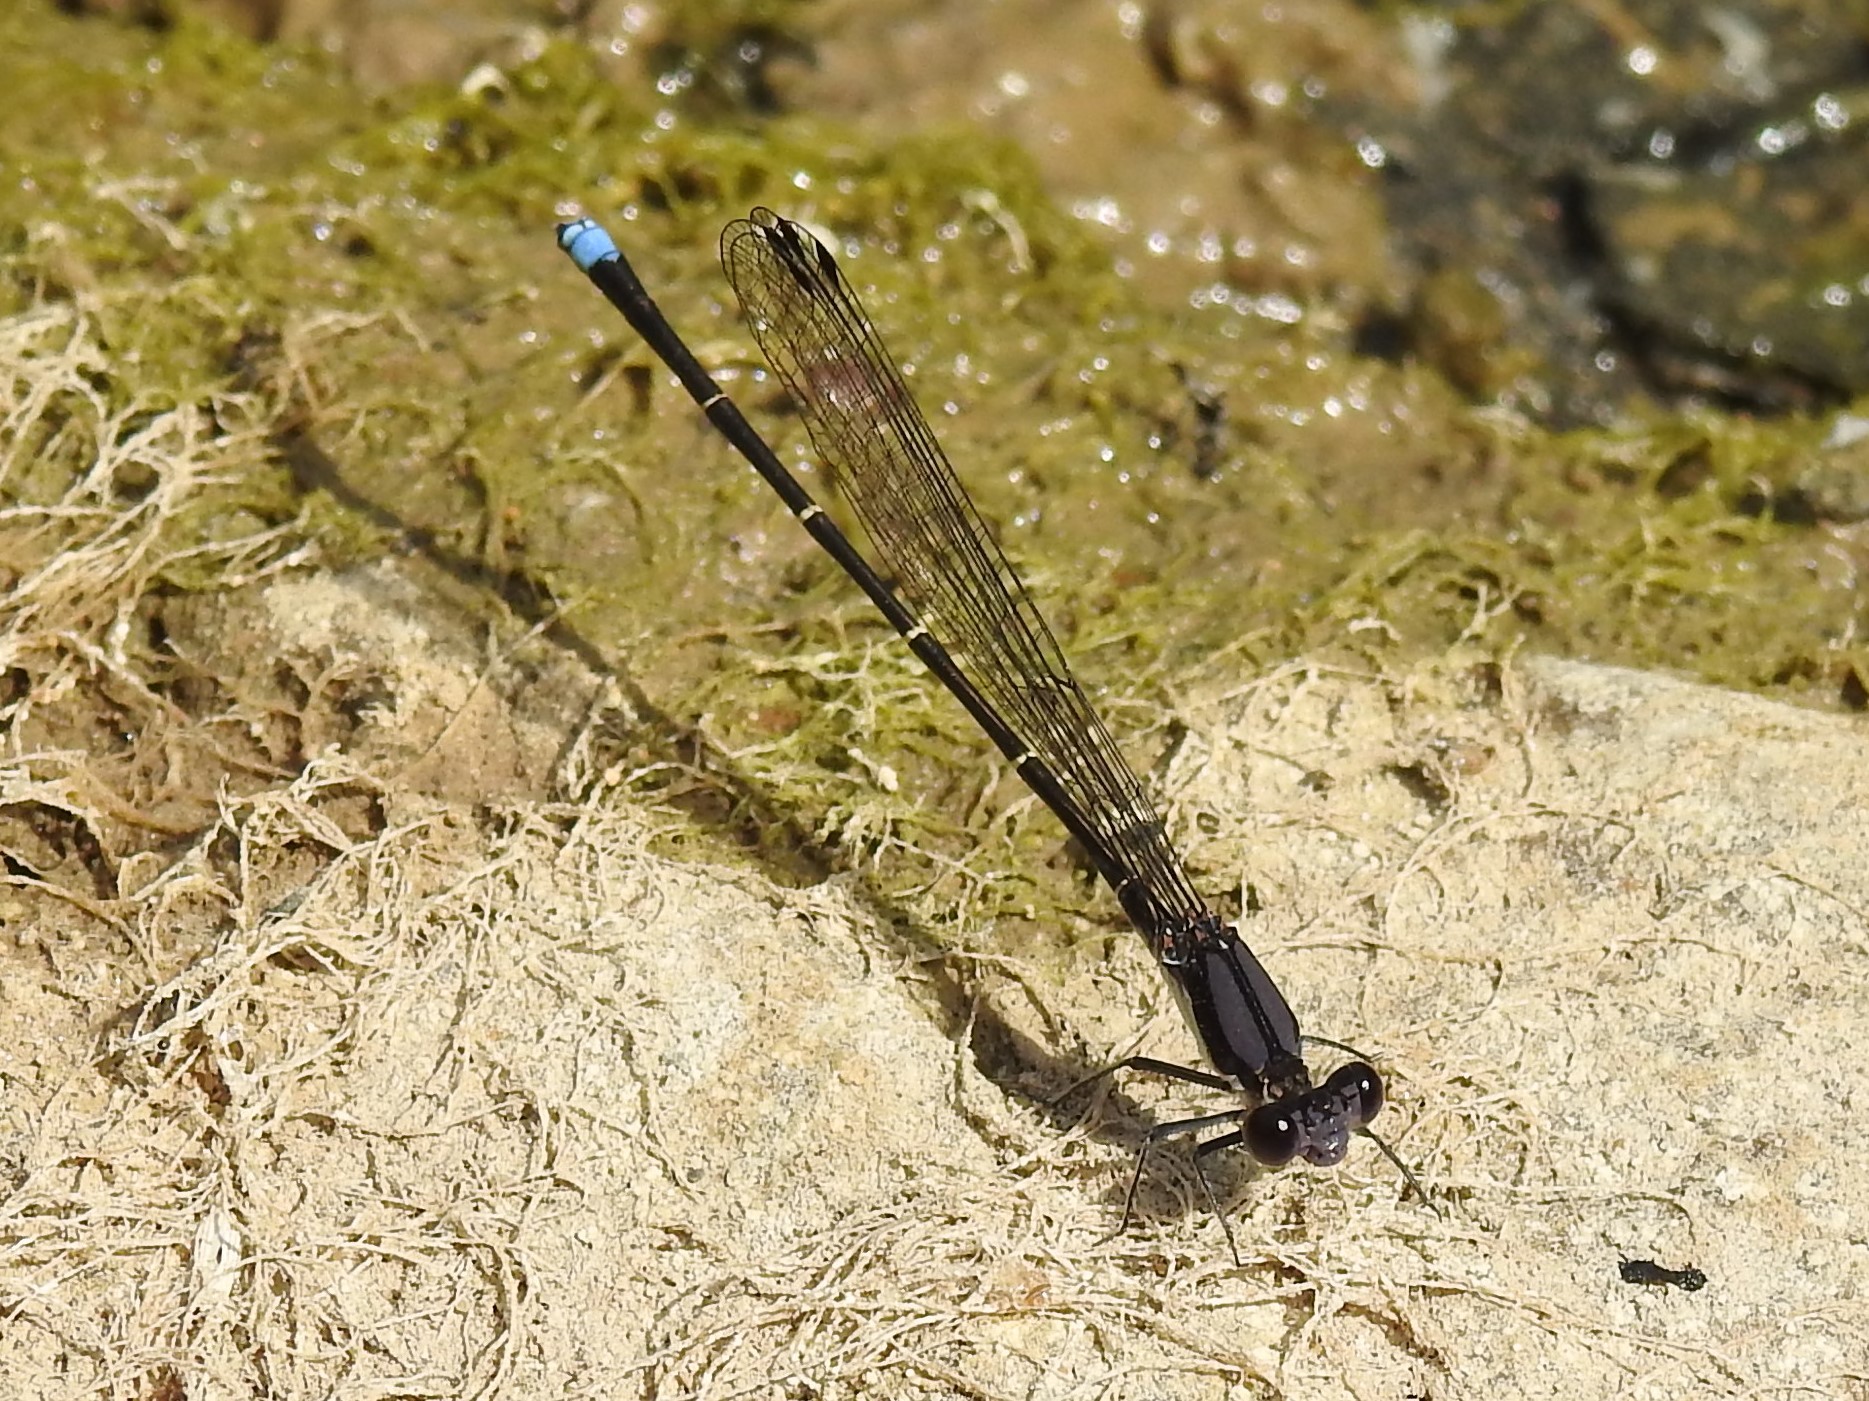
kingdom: Animalia
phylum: Arthropoda
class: Insecta
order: Odonata
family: Coenagrionidae
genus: Argia
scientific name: Argia tibialis
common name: Blue-tipped dancer
